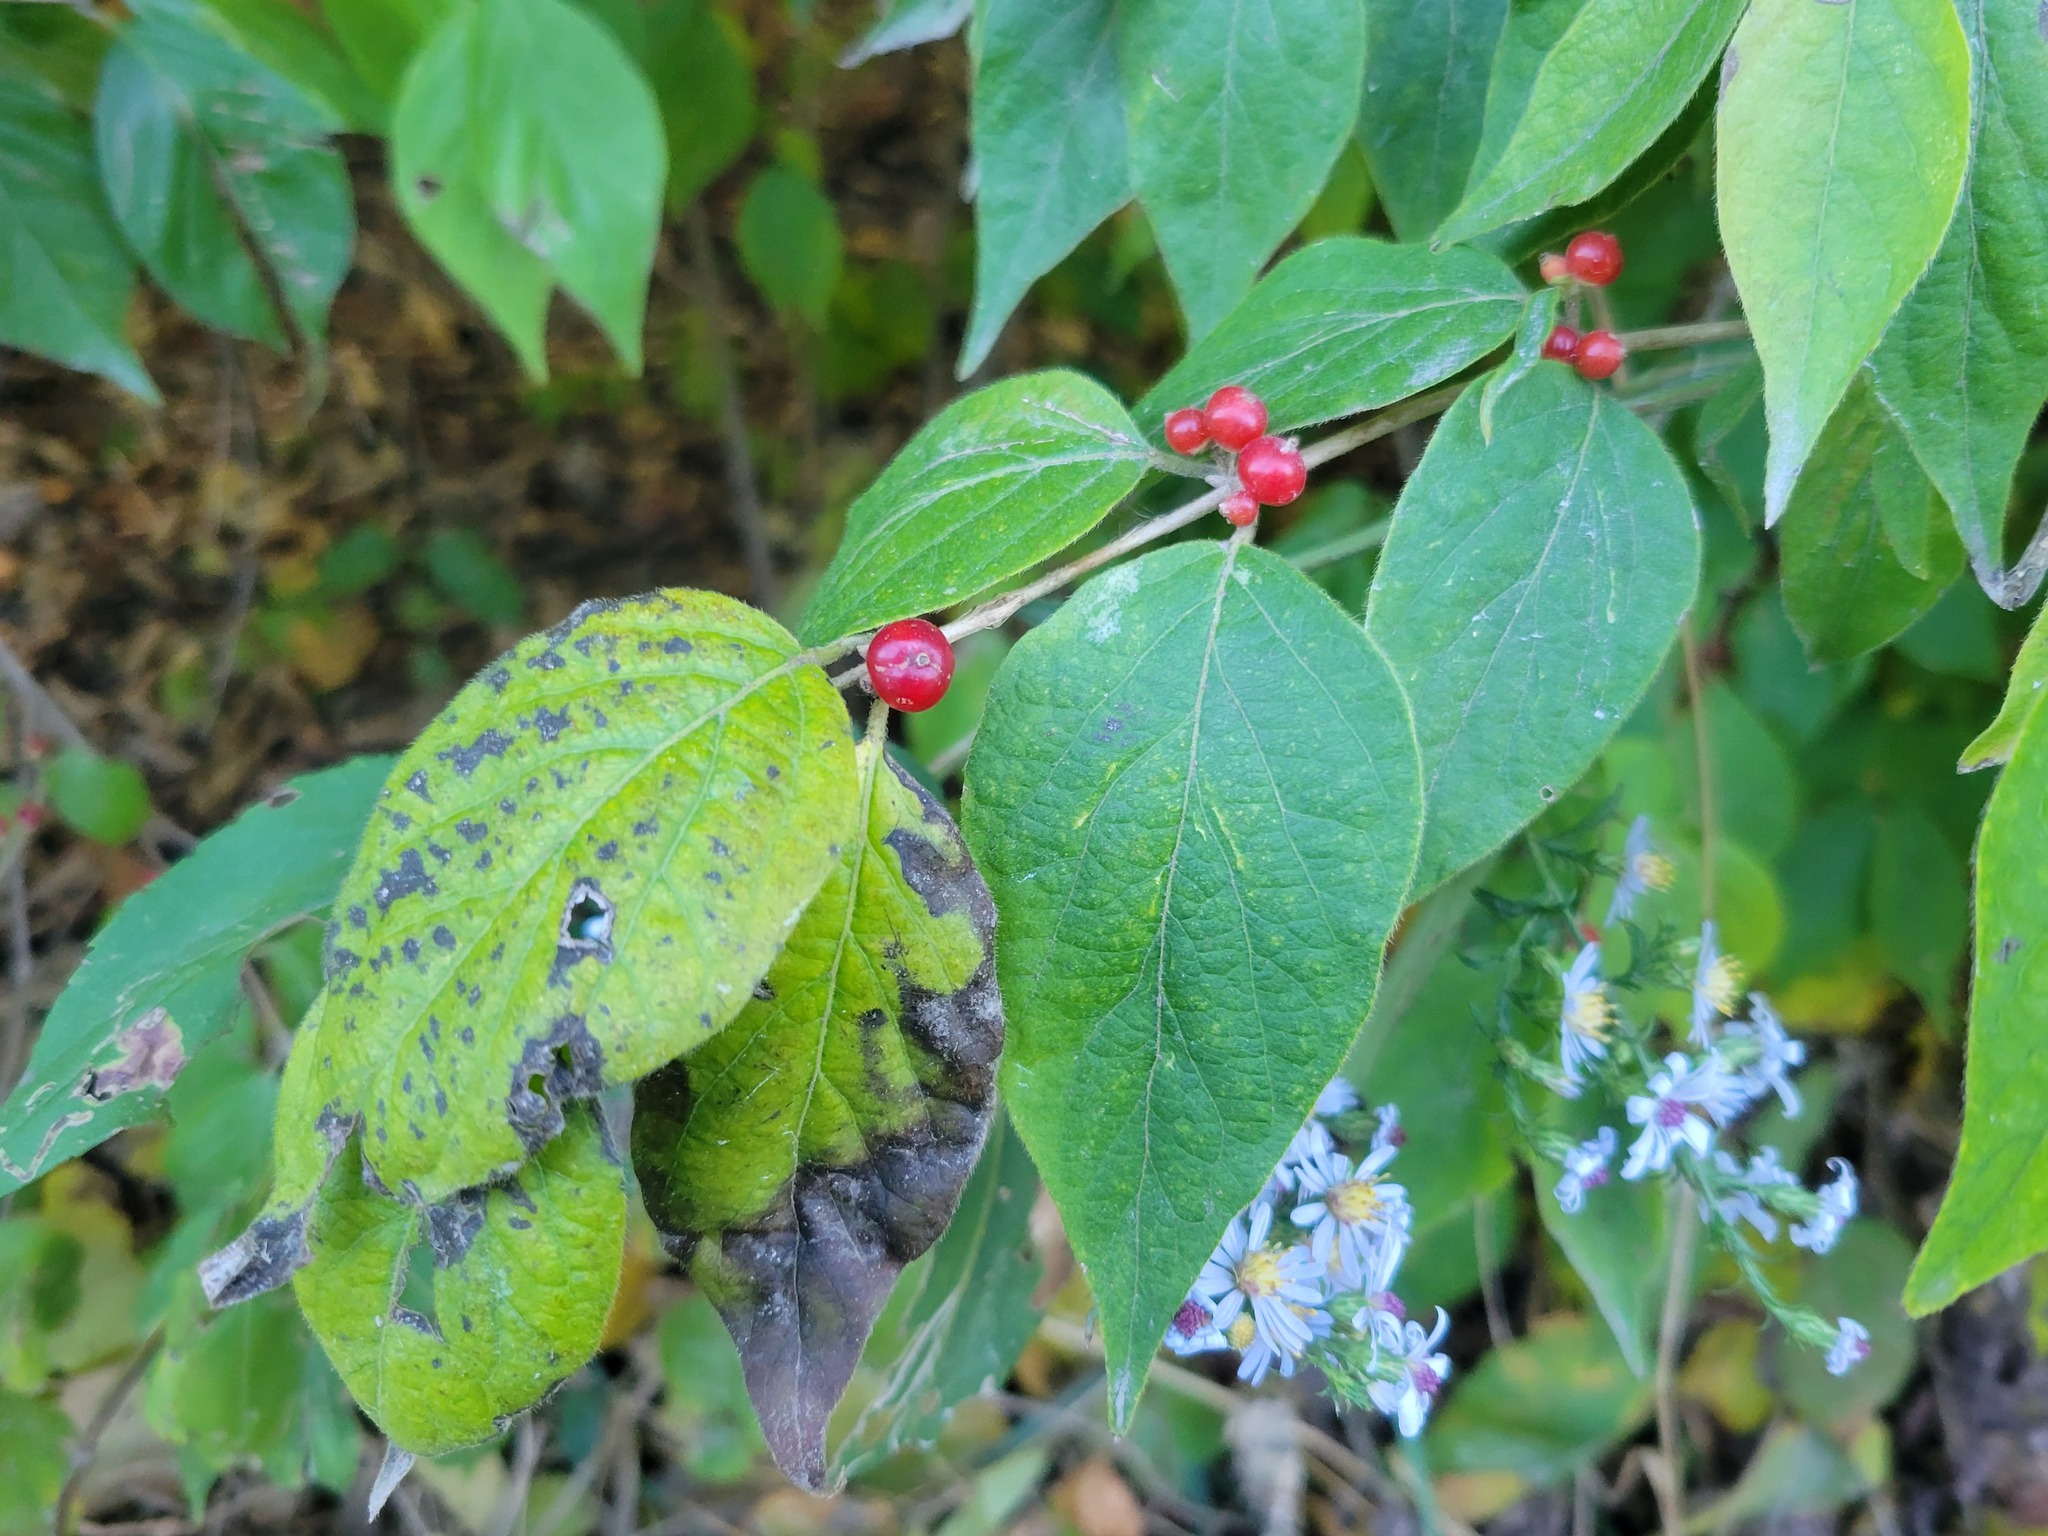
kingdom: Plantae
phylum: Tracheophyta
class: Magnoliopsida
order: Dipsacales
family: Caprifoliaceae
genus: Lonicera
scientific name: Lonicera maackii
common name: Amur honeysuckle
